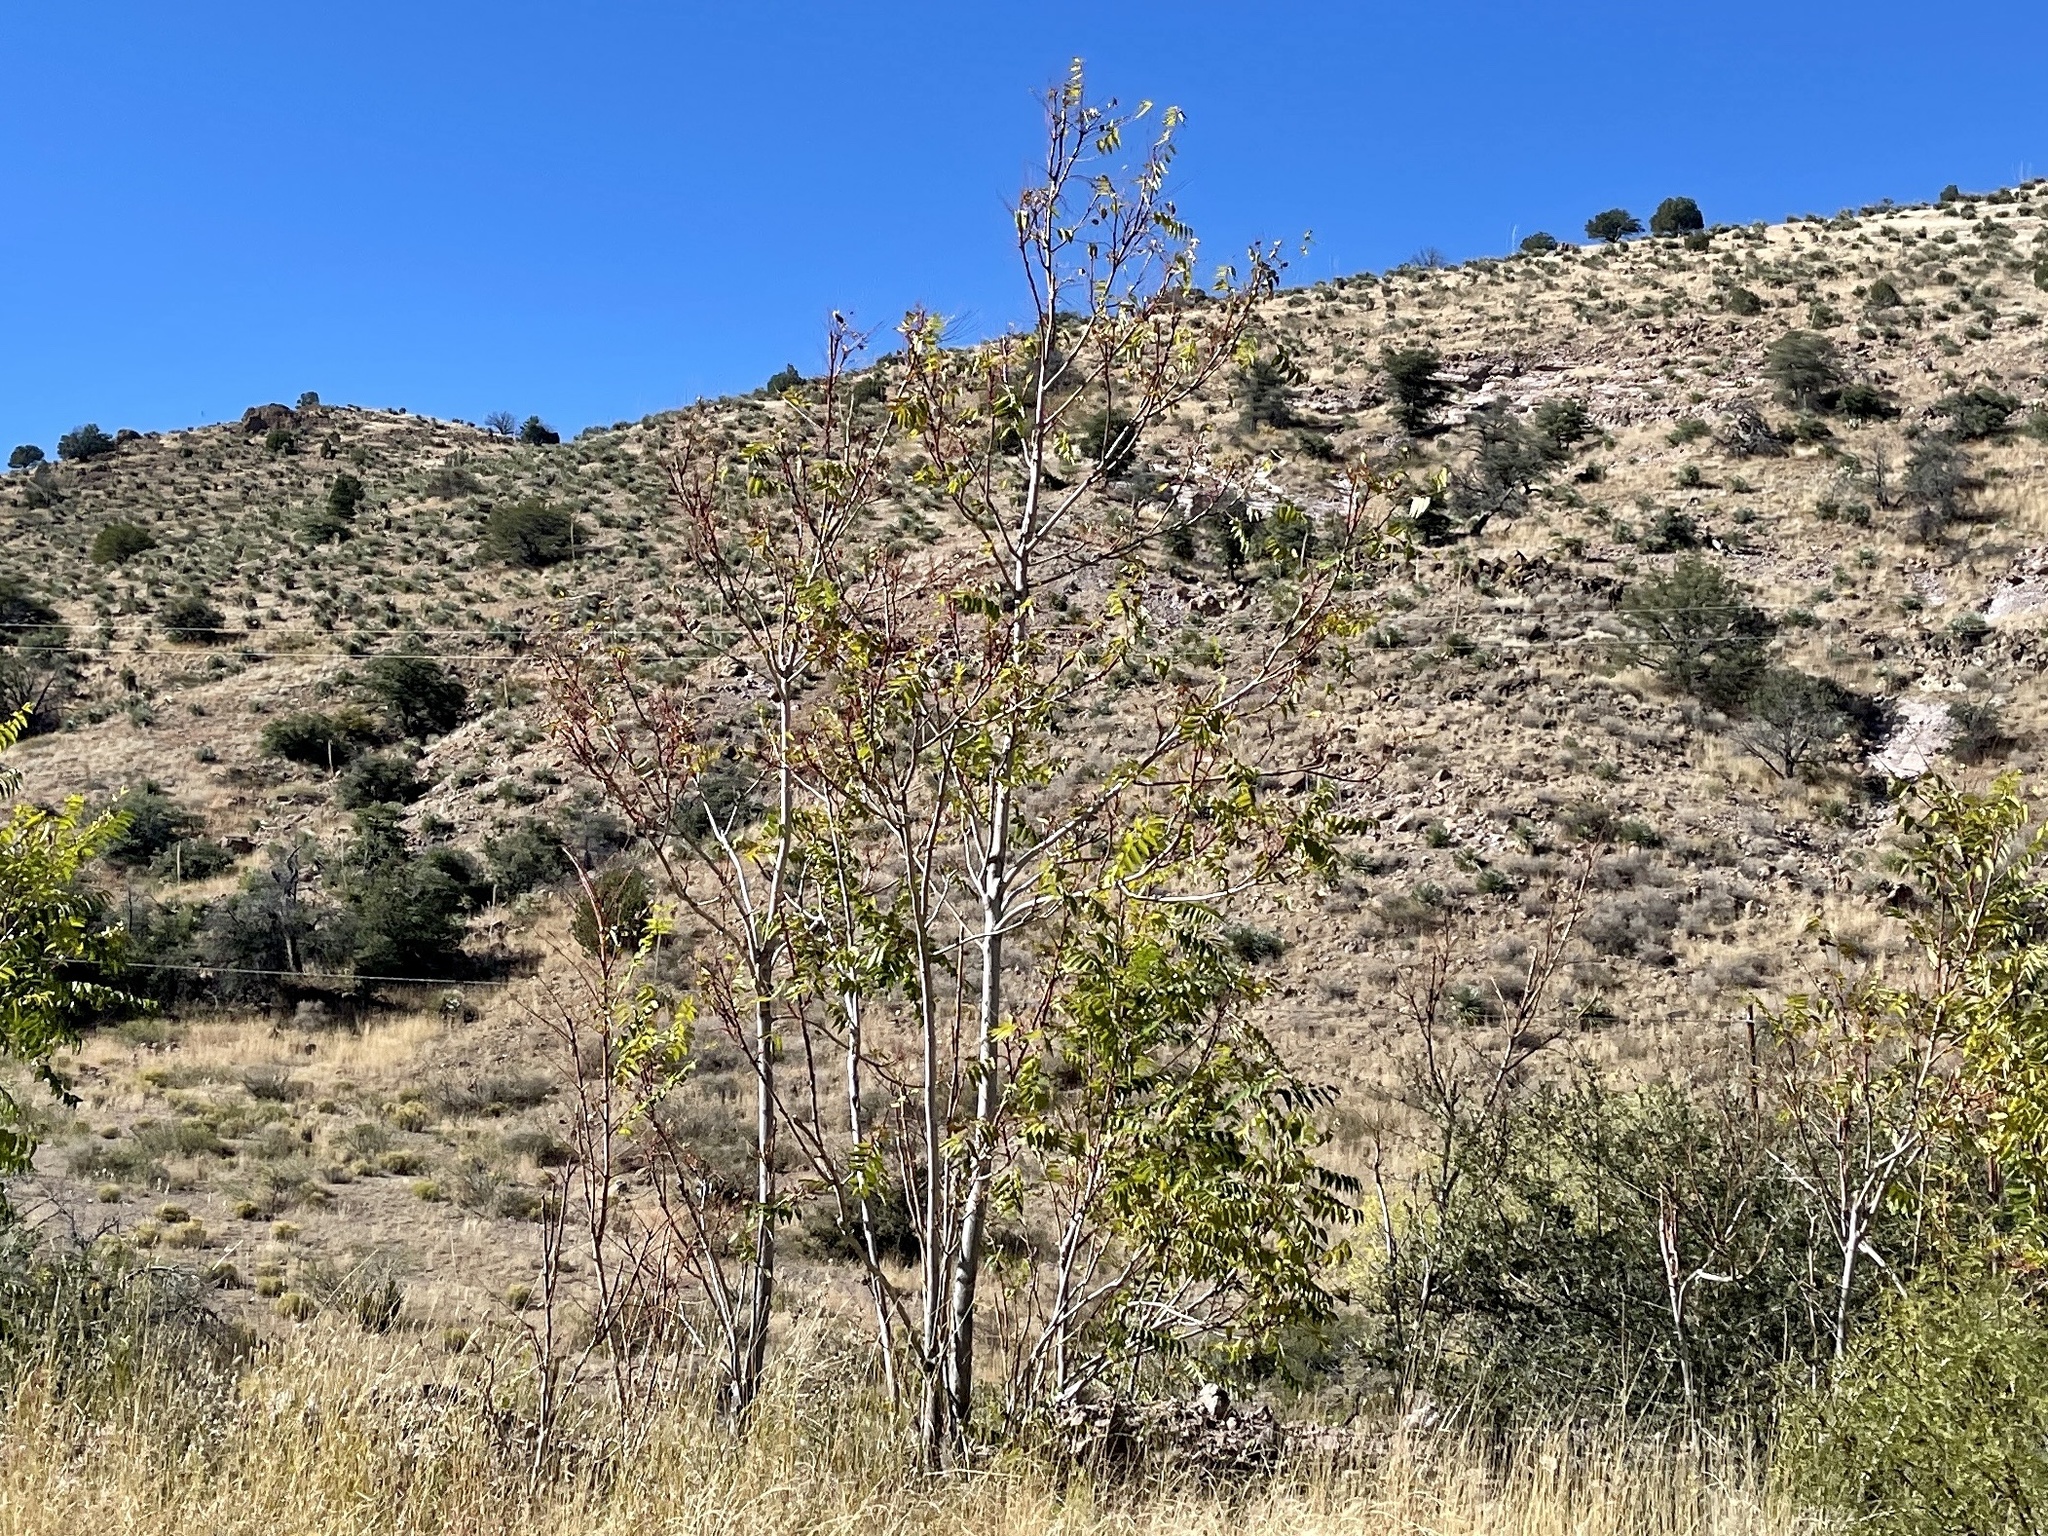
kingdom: Plantae
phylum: Tracheophyta
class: Magnoliopsida
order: Fagales
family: Juglandaceae
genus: Juglans
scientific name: Juglans major
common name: Arizona walnut
